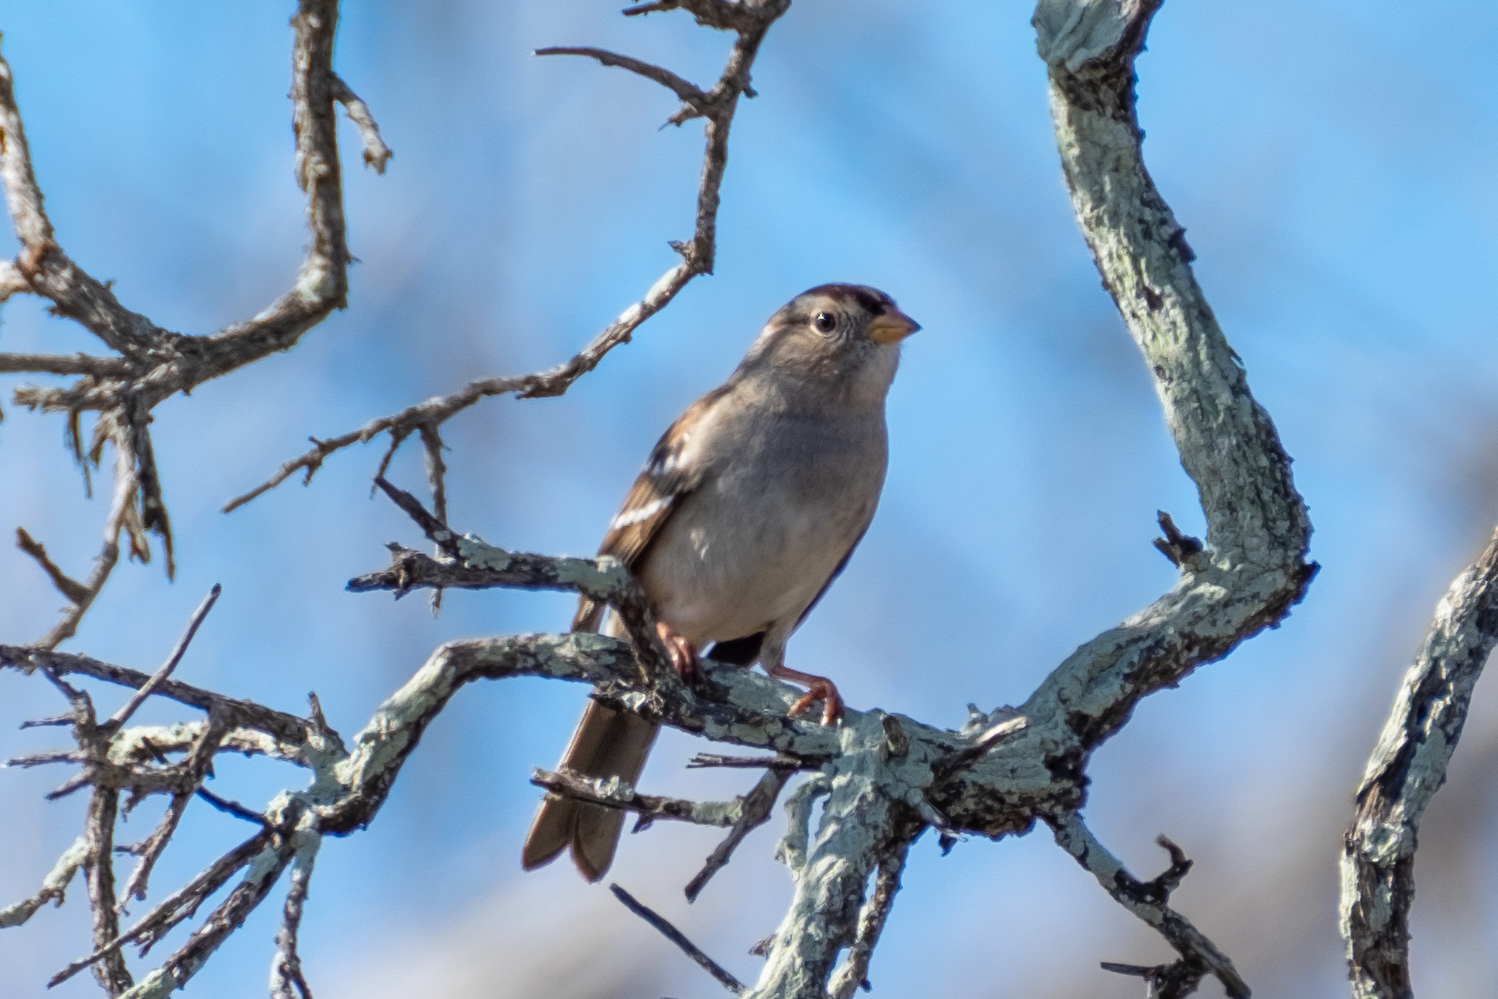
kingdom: Animalia
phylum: Chordata
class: Aves
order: Passeriformes
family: Passerellidae
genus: Zonotrichia
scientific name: Zonotrichia leucophrys
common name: White-crowned sparrow
